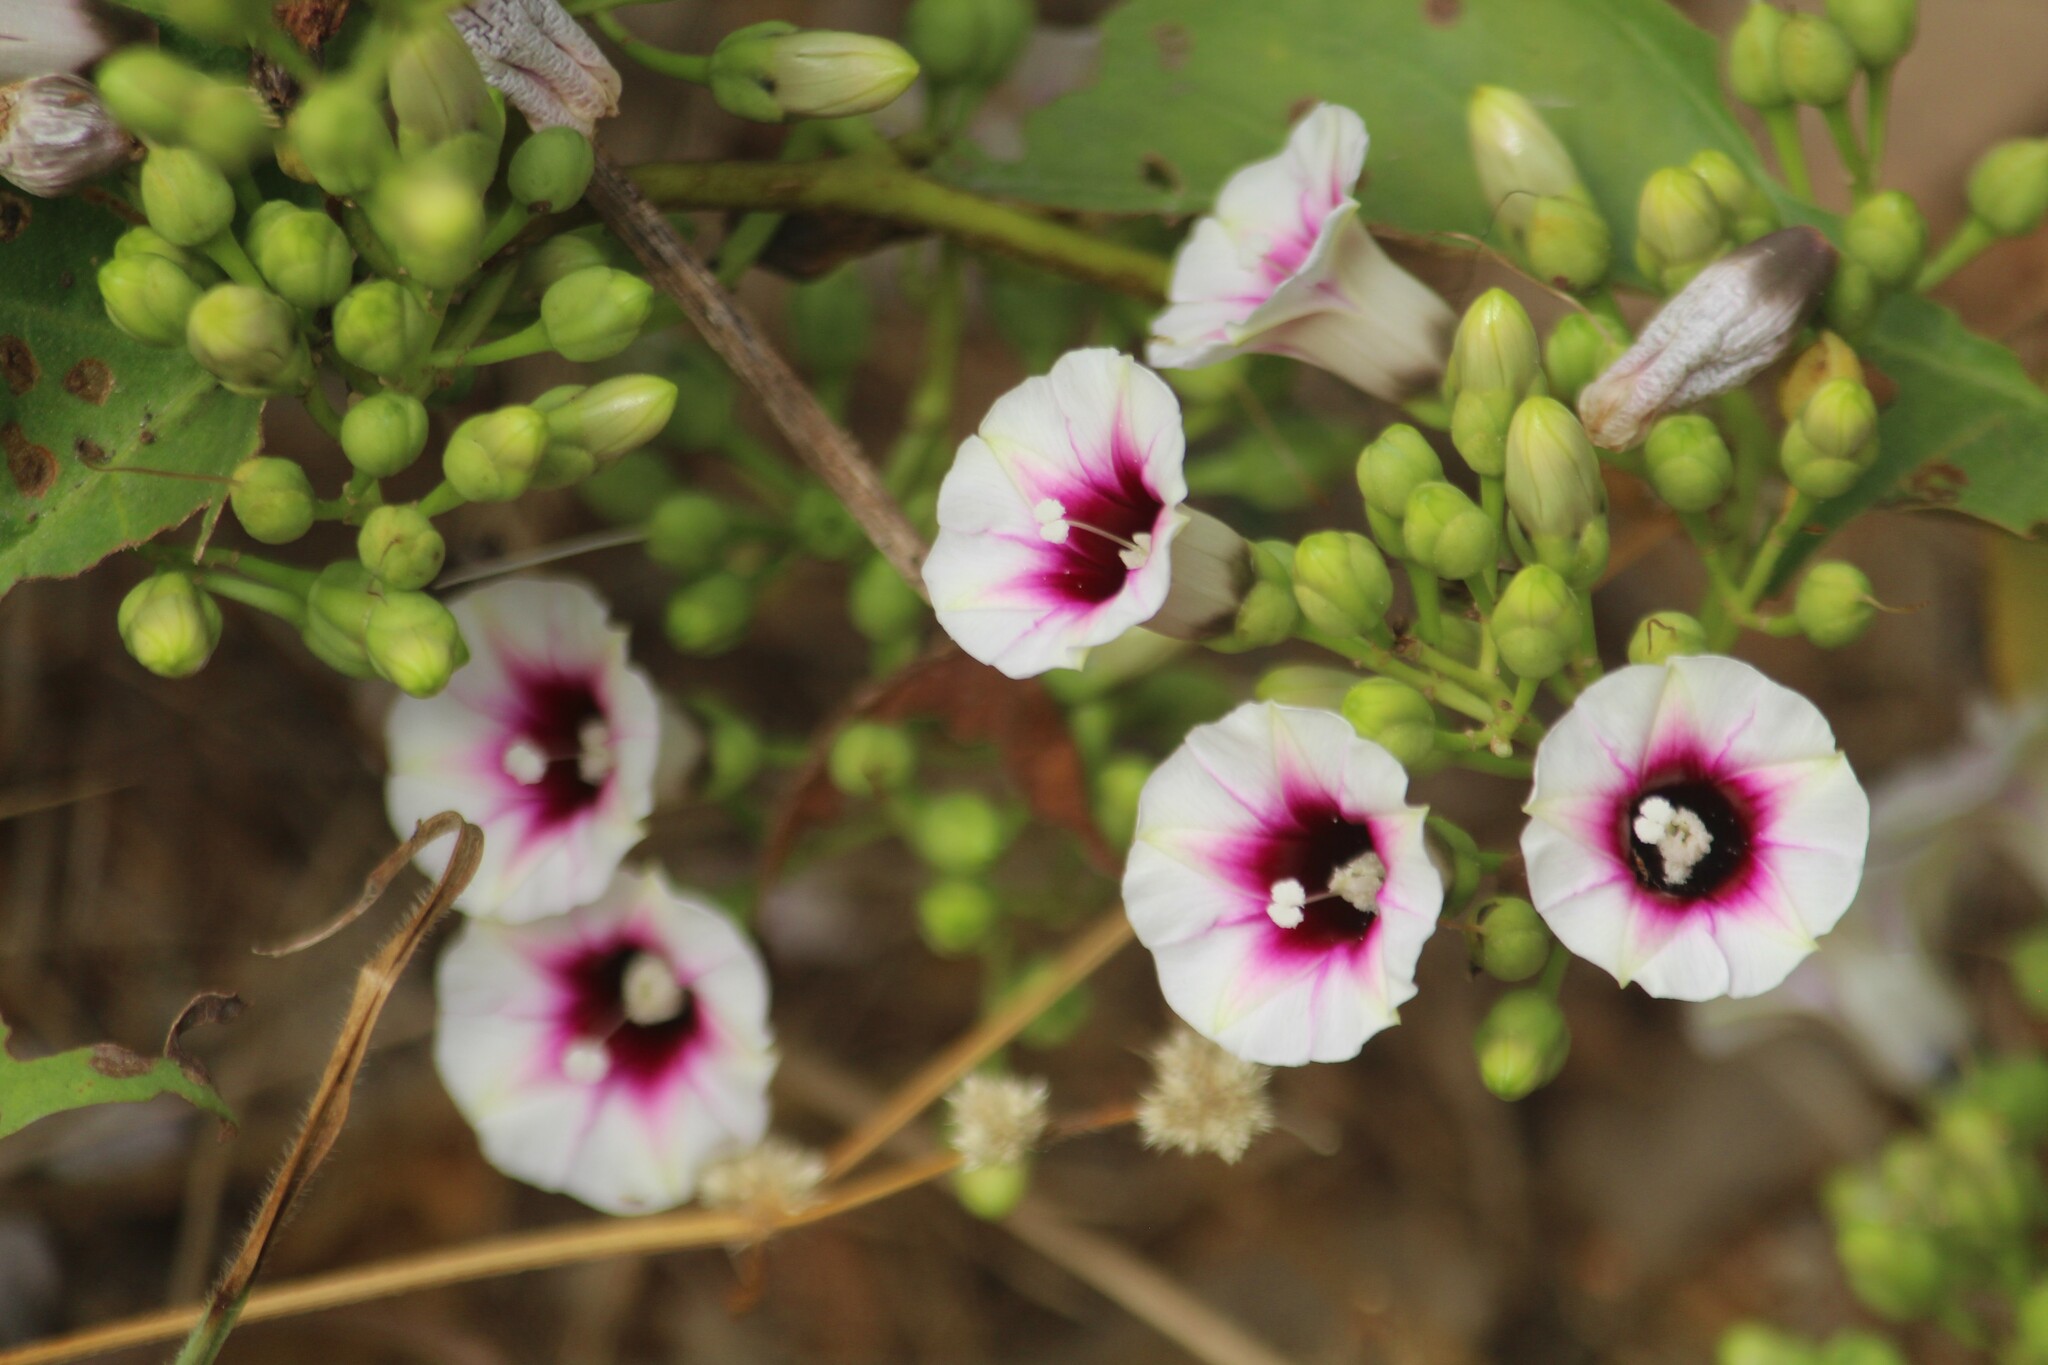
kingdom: Plantae
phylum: Tracheophyta
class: Magnoliopsida
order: Solanales
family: Convolvulaceae
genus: Ipomoea
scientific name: Ipomoea staphylina
